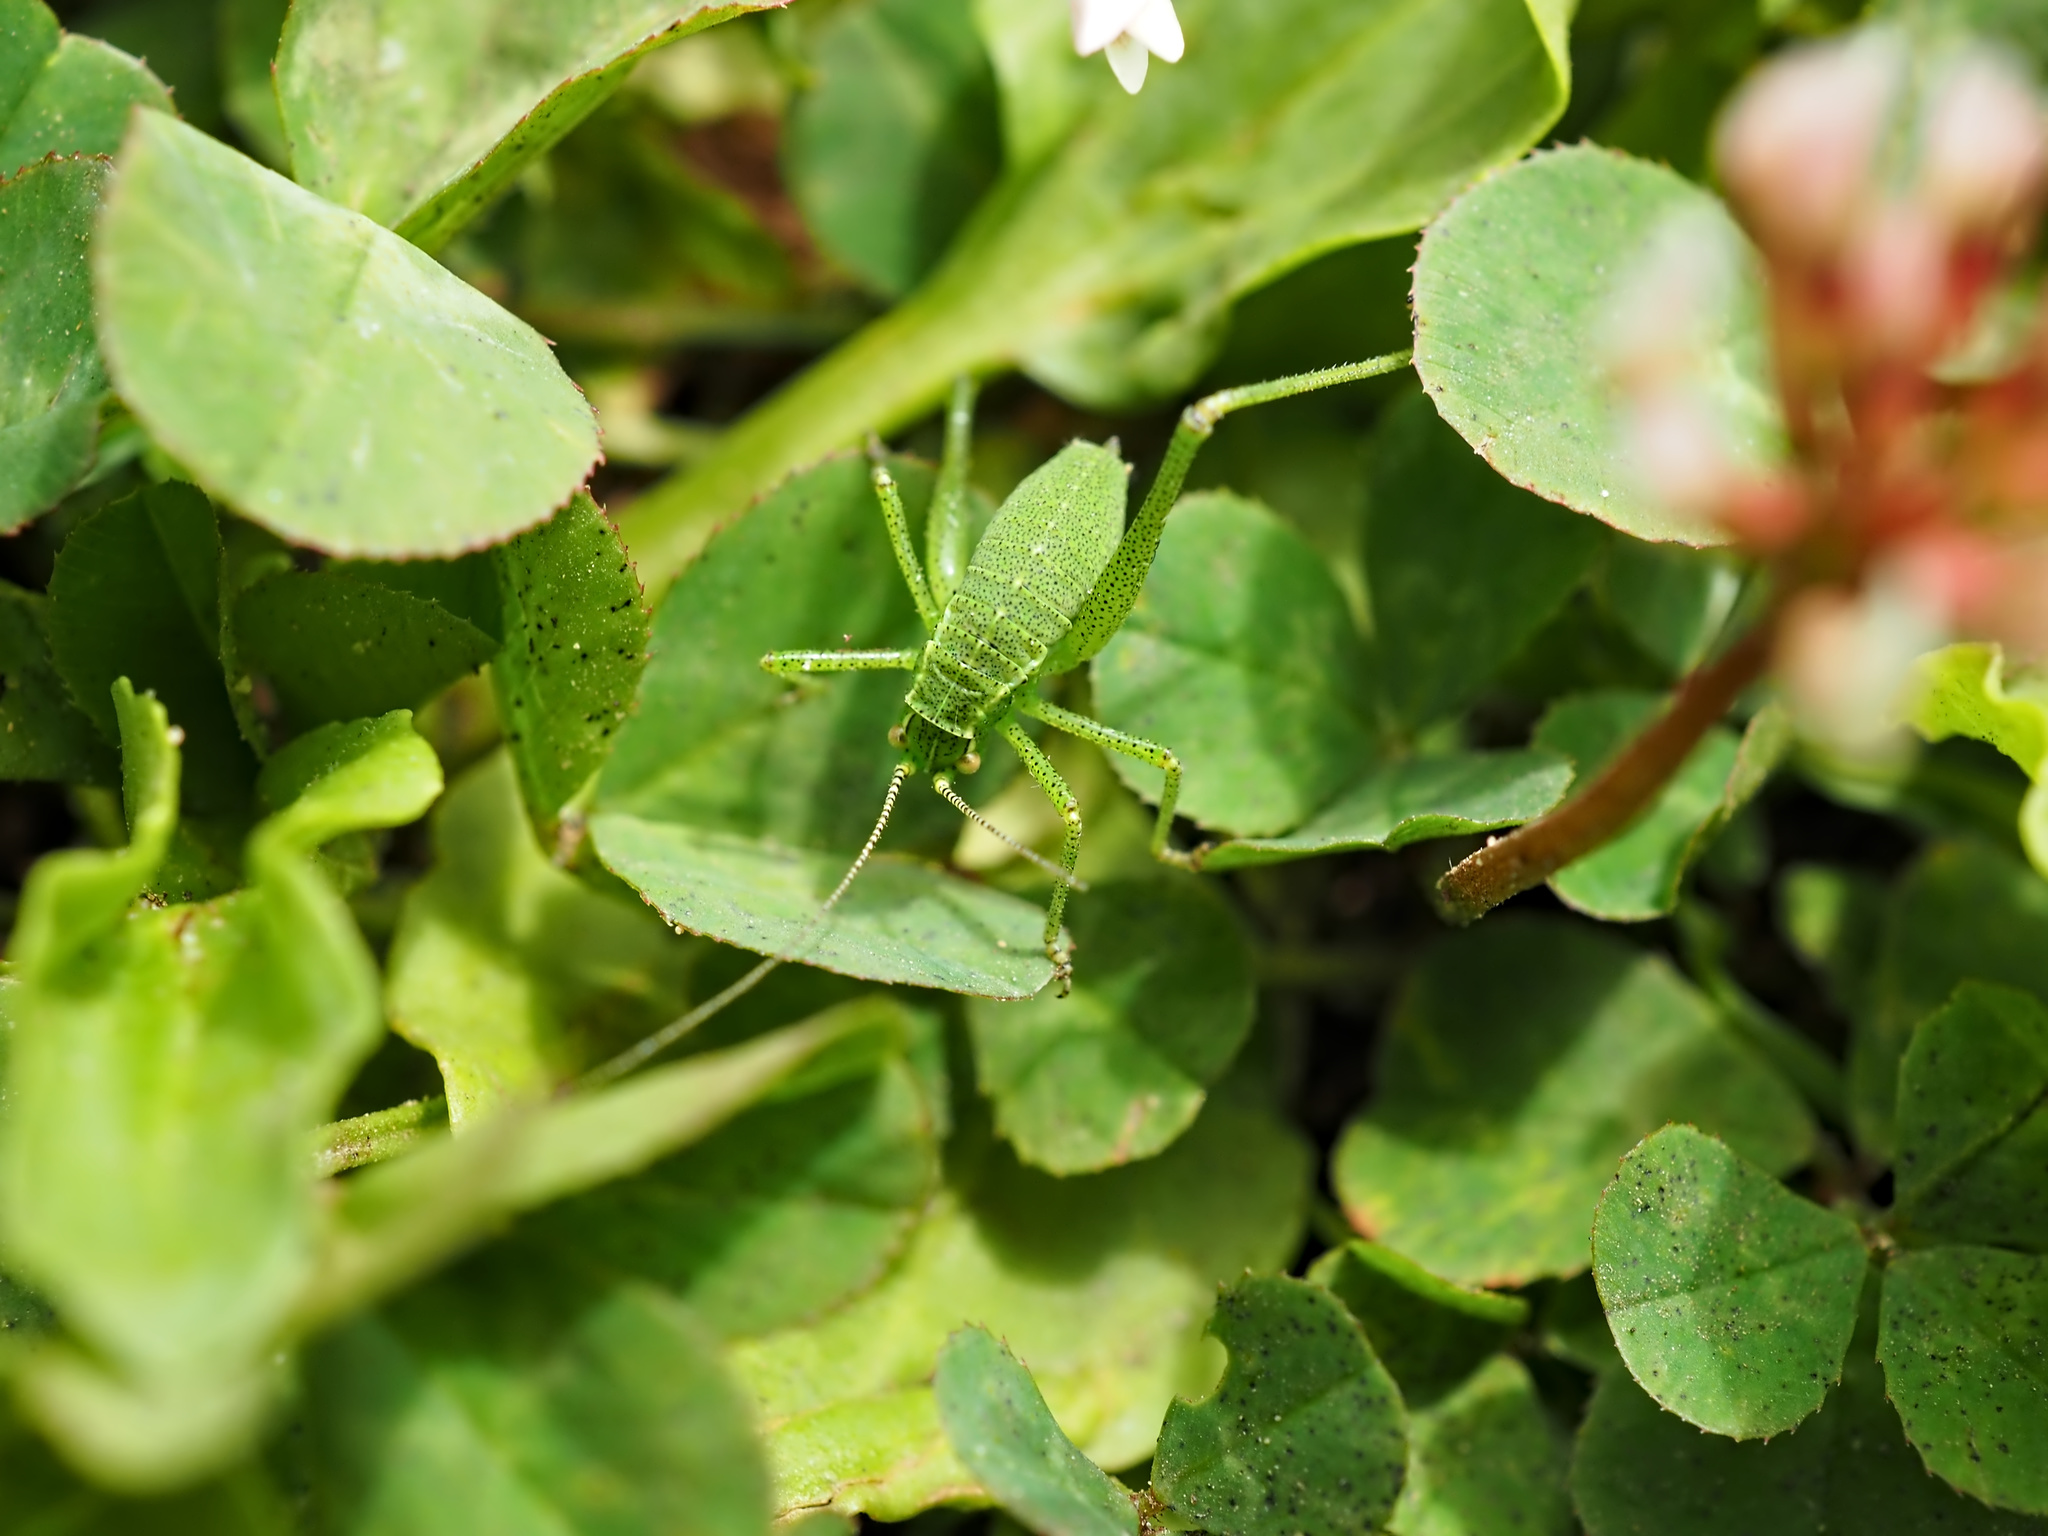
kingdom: Animalia
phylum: Arthropoda
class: Insecta
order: Orthoptera
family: Tettigoniidae
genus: Leptophyes
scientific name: Leptophyes punctatissima
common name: Speckled bush-cricket
